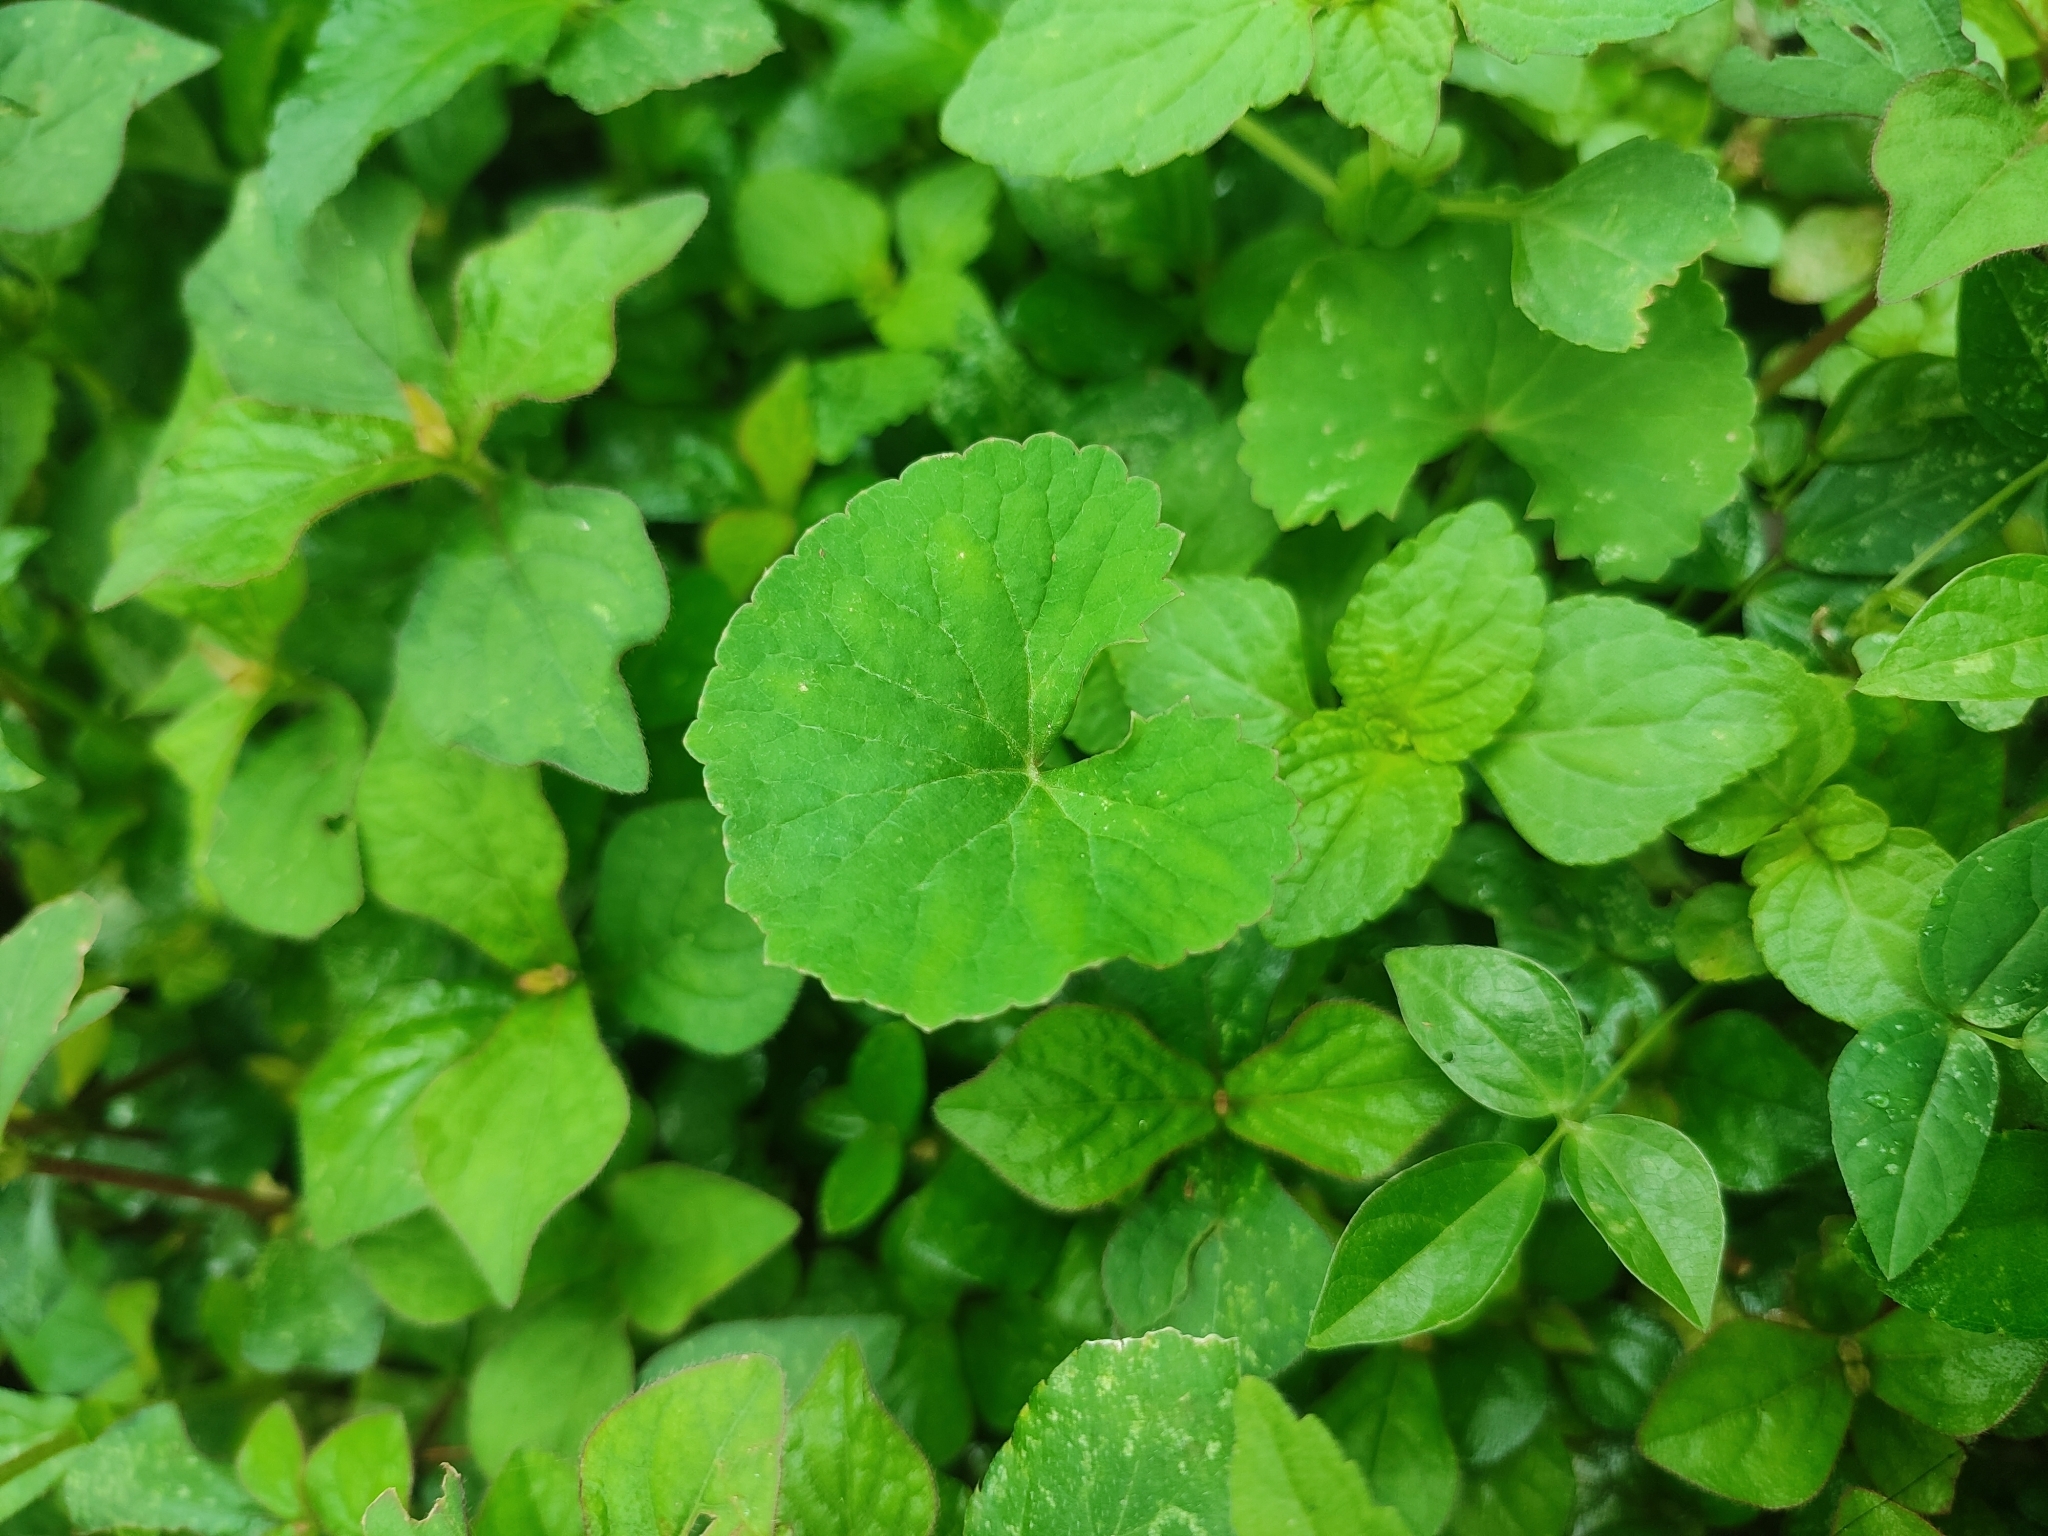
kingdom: Plantae
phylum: Tracheophyta
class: Magnoliopsida
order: Apiales
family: Apiaceae
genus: Centella
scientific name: Centella asiatica
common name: Spadeleaf
